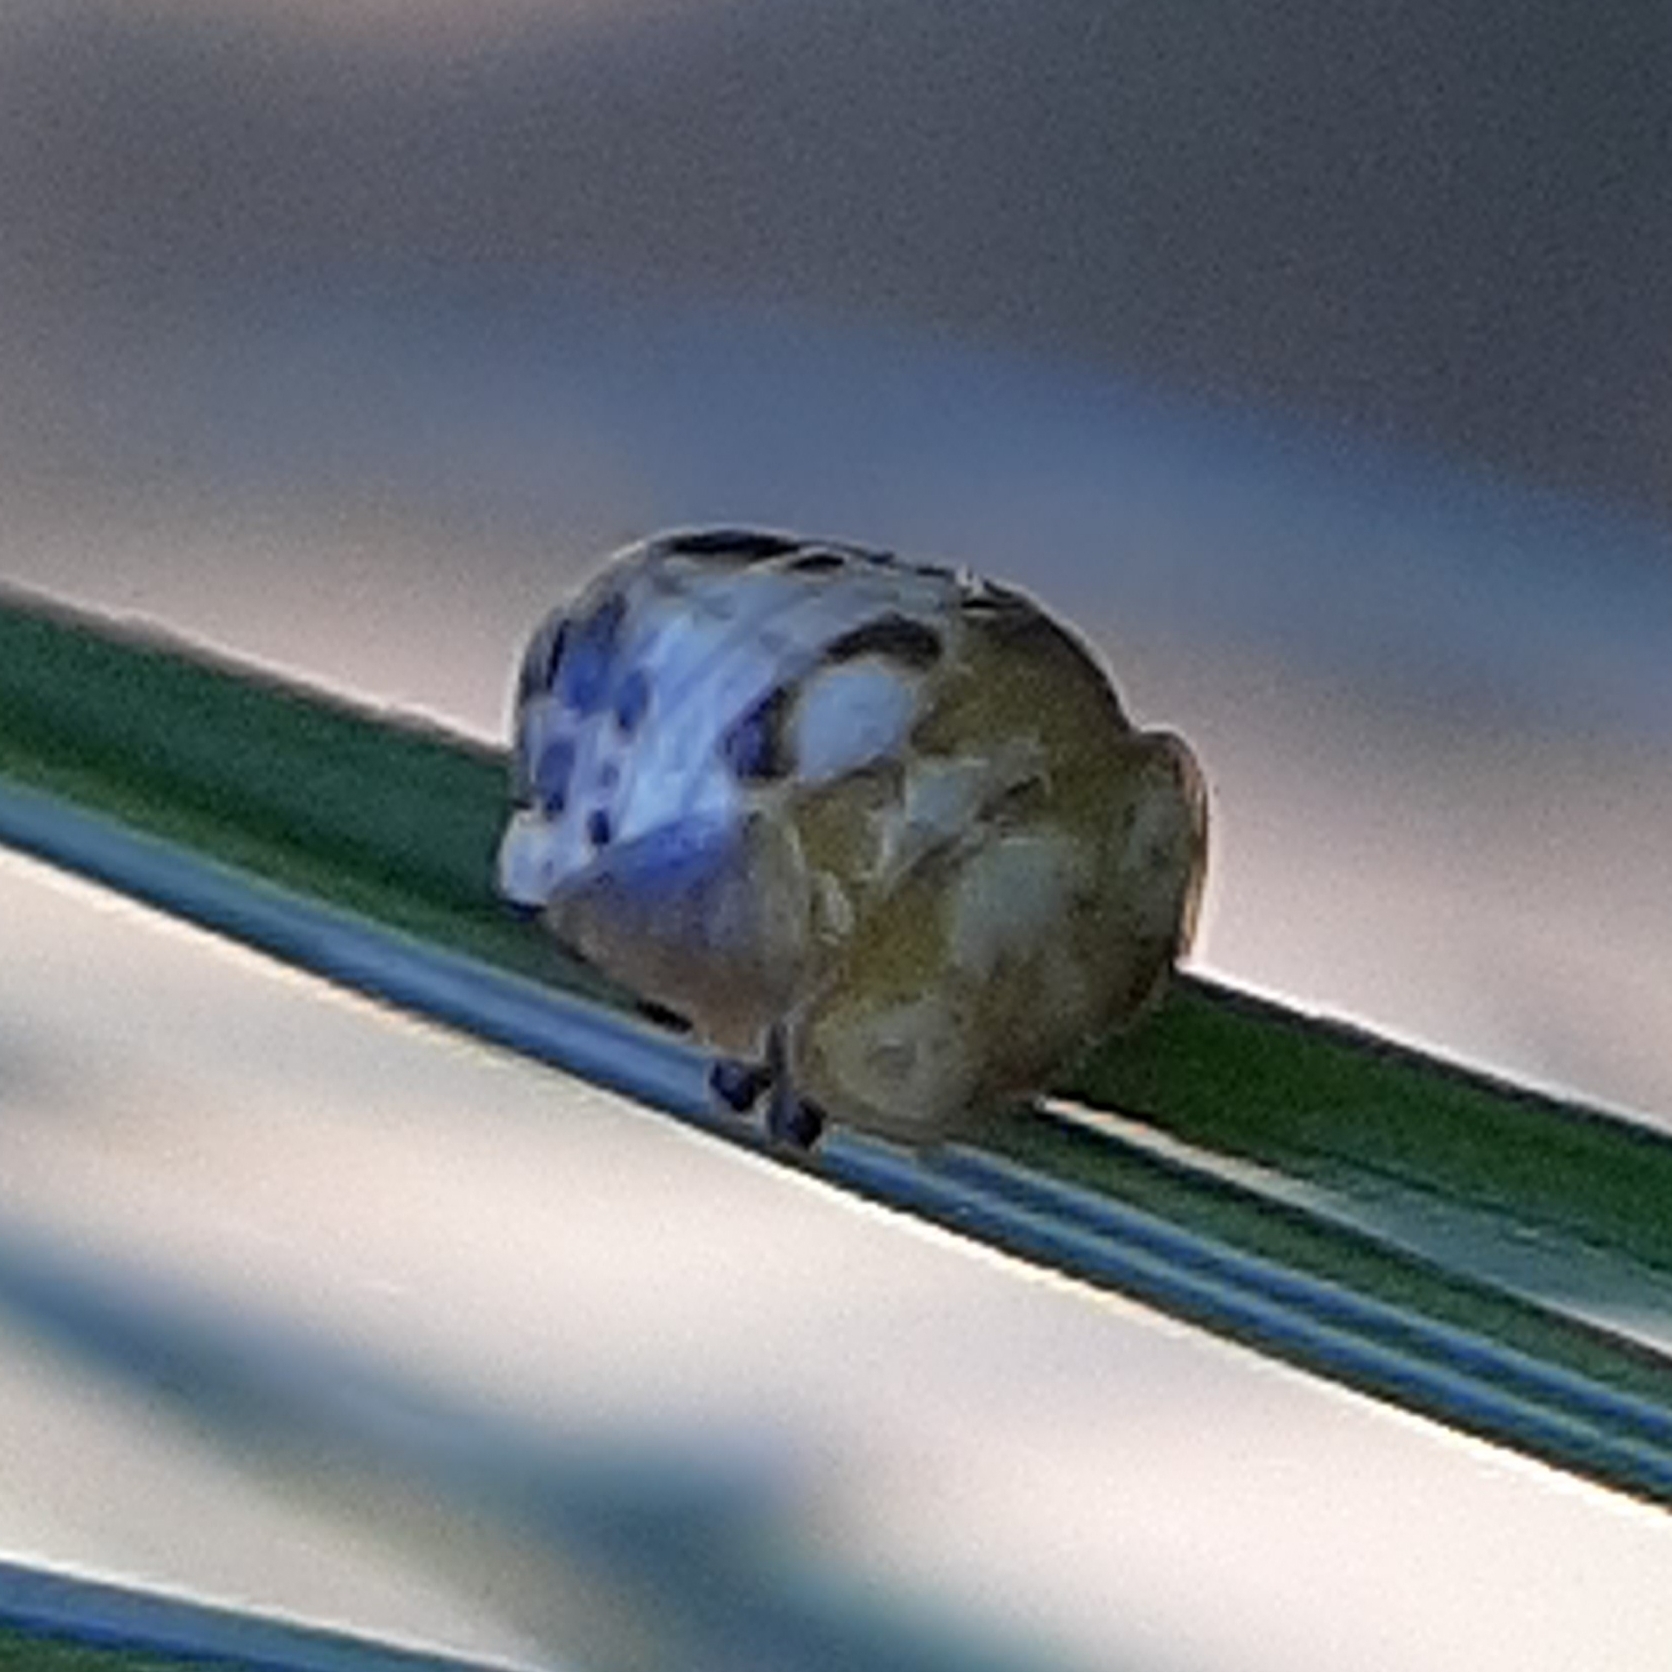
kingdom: Animalia
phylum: Arthropoda
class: Insecta
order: Coleoptera
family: Coccinellidae
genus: Mulsantina
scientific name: Mulsantina picta
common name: Painted ladybird
